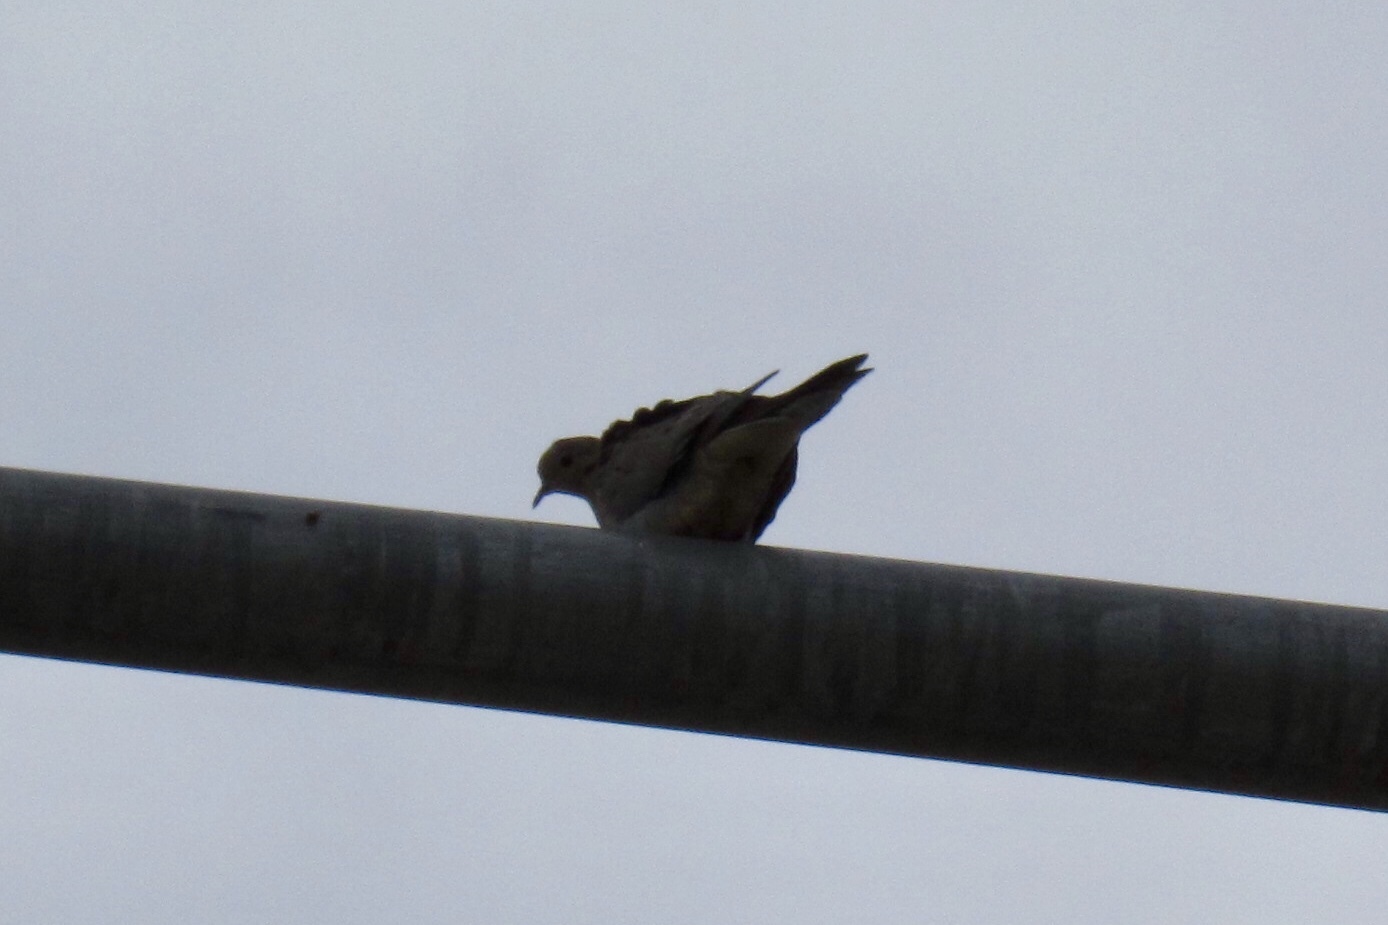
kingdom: Animalia
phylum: Chordata
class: Aves
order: Columbiformes
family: Columbidae
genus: Zenaida
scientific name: Zenaida macroura
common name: Mourning dove
